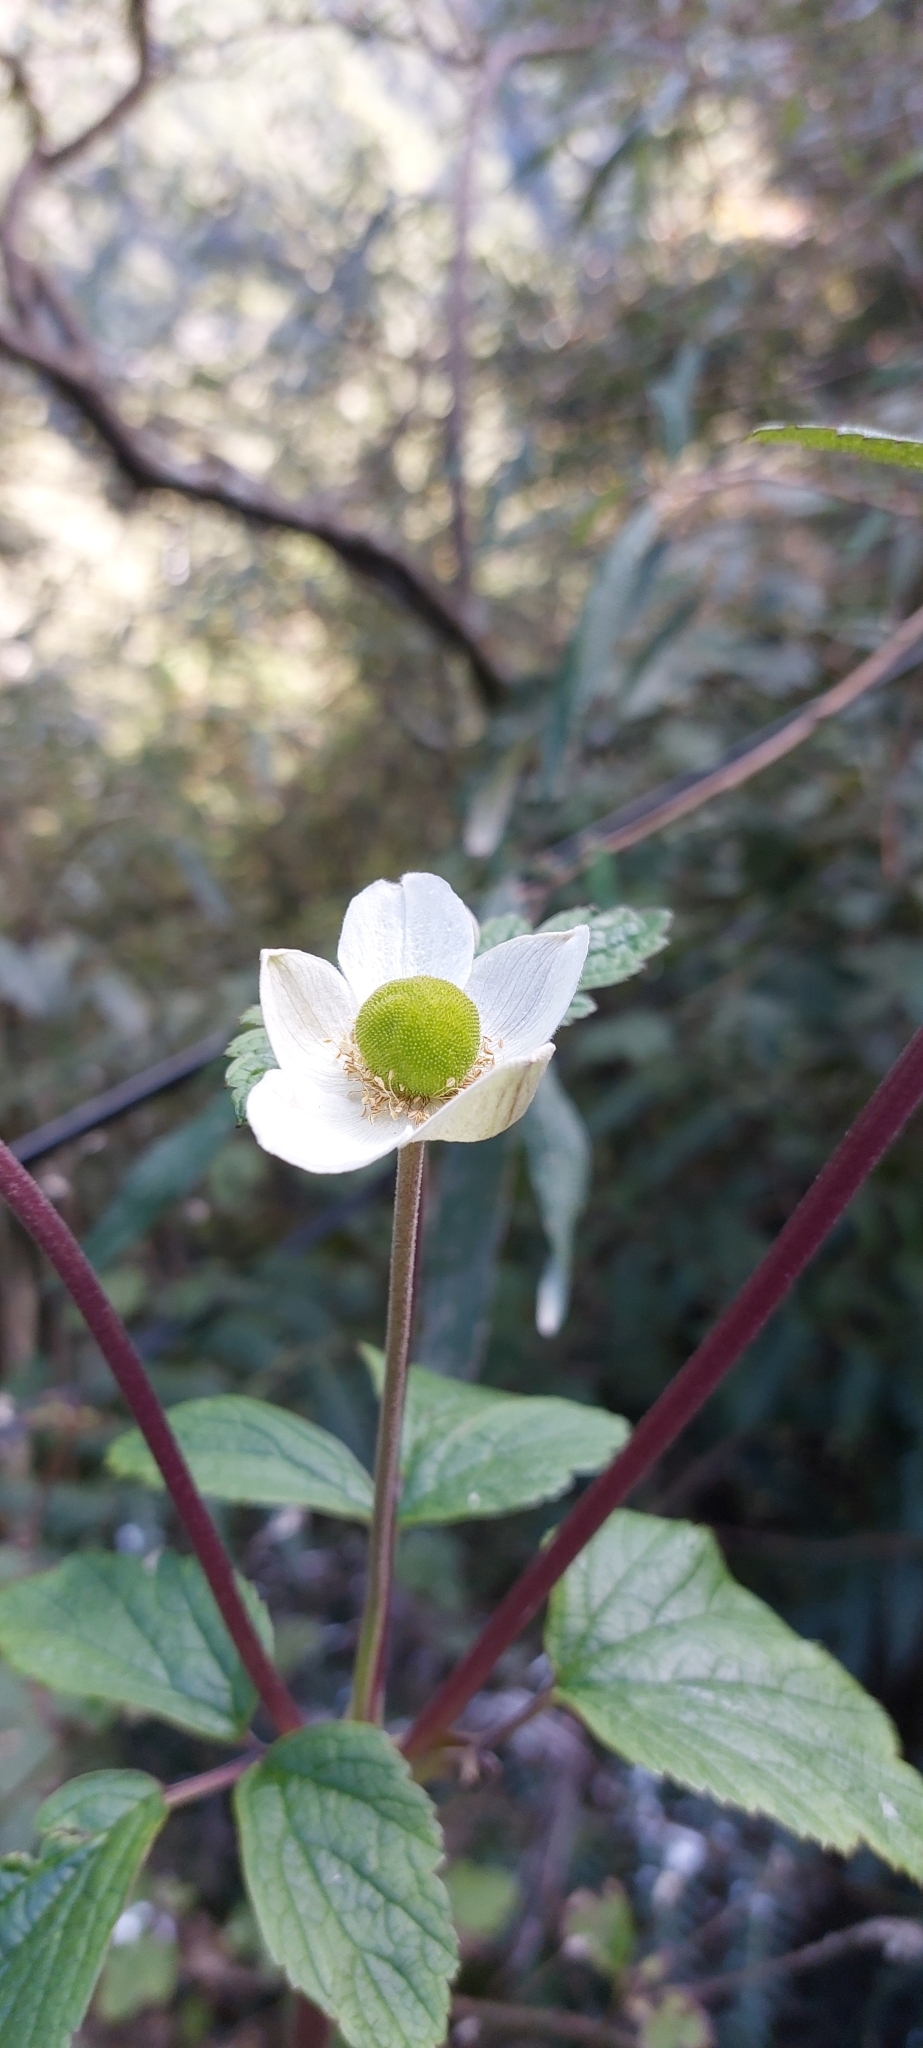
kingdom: Plantae
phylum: Tracheophyta
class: Magnoliopsida
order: Ranunculales
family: Ranunculaceae
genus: Eriocapitella
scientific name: Eriocapitella vitifolia
